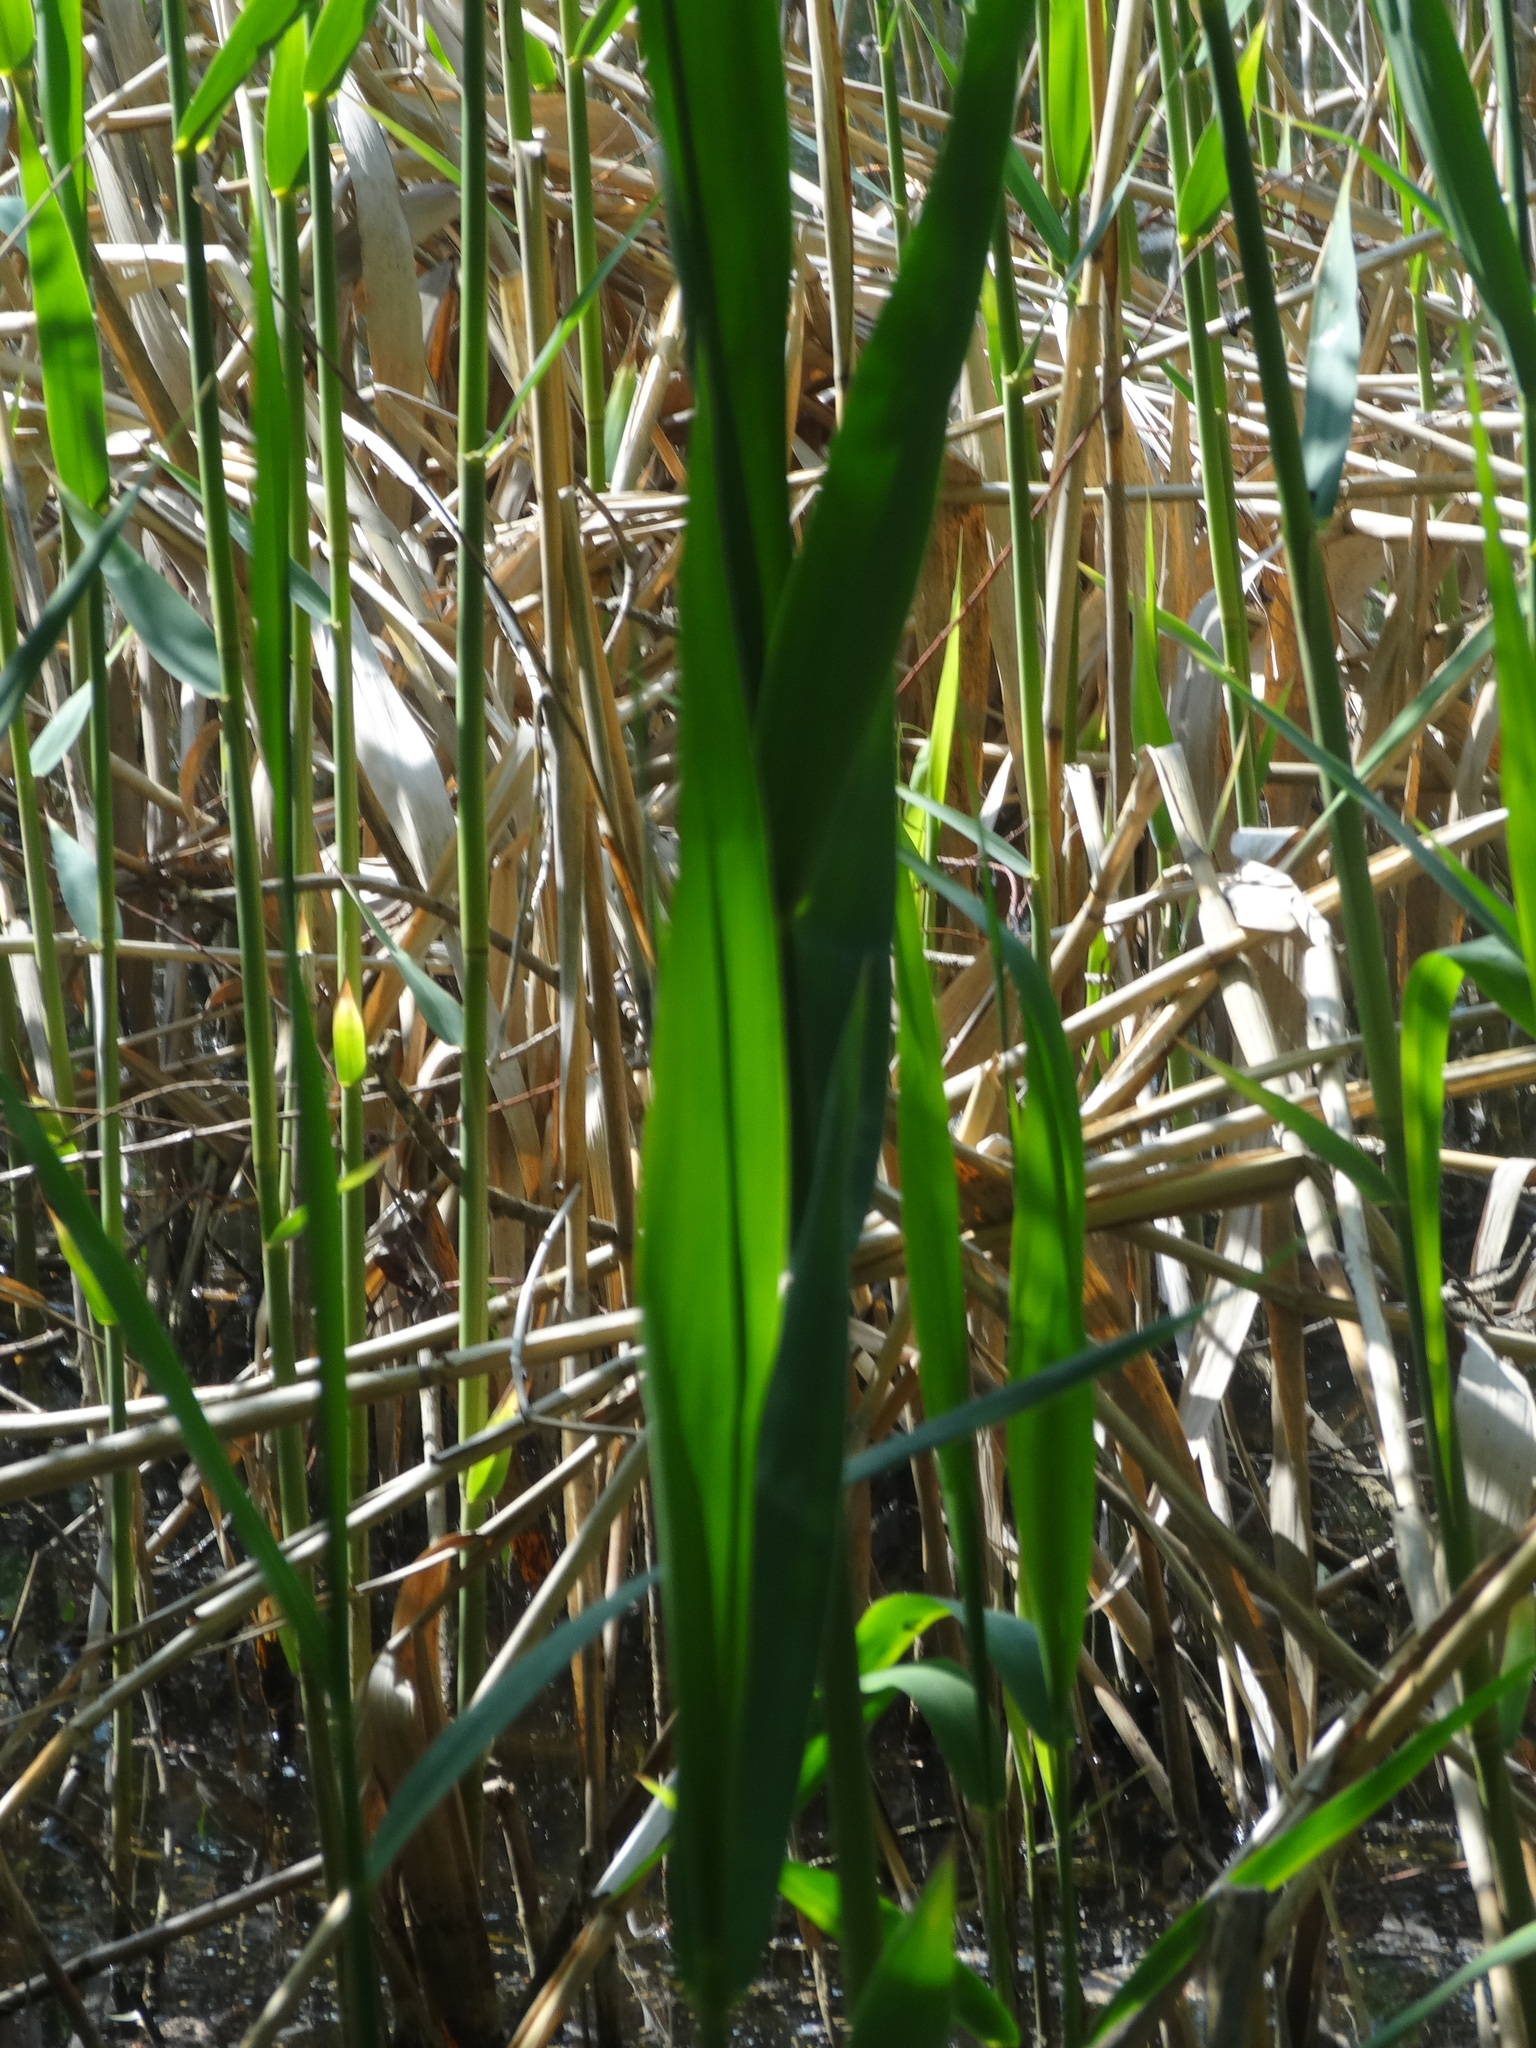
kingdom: Plantae
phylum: Tracheophyta
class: Liliopsida
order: Poales
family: Poaceae
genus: Phragmites
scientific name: Phragmites australis
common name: Common reed
